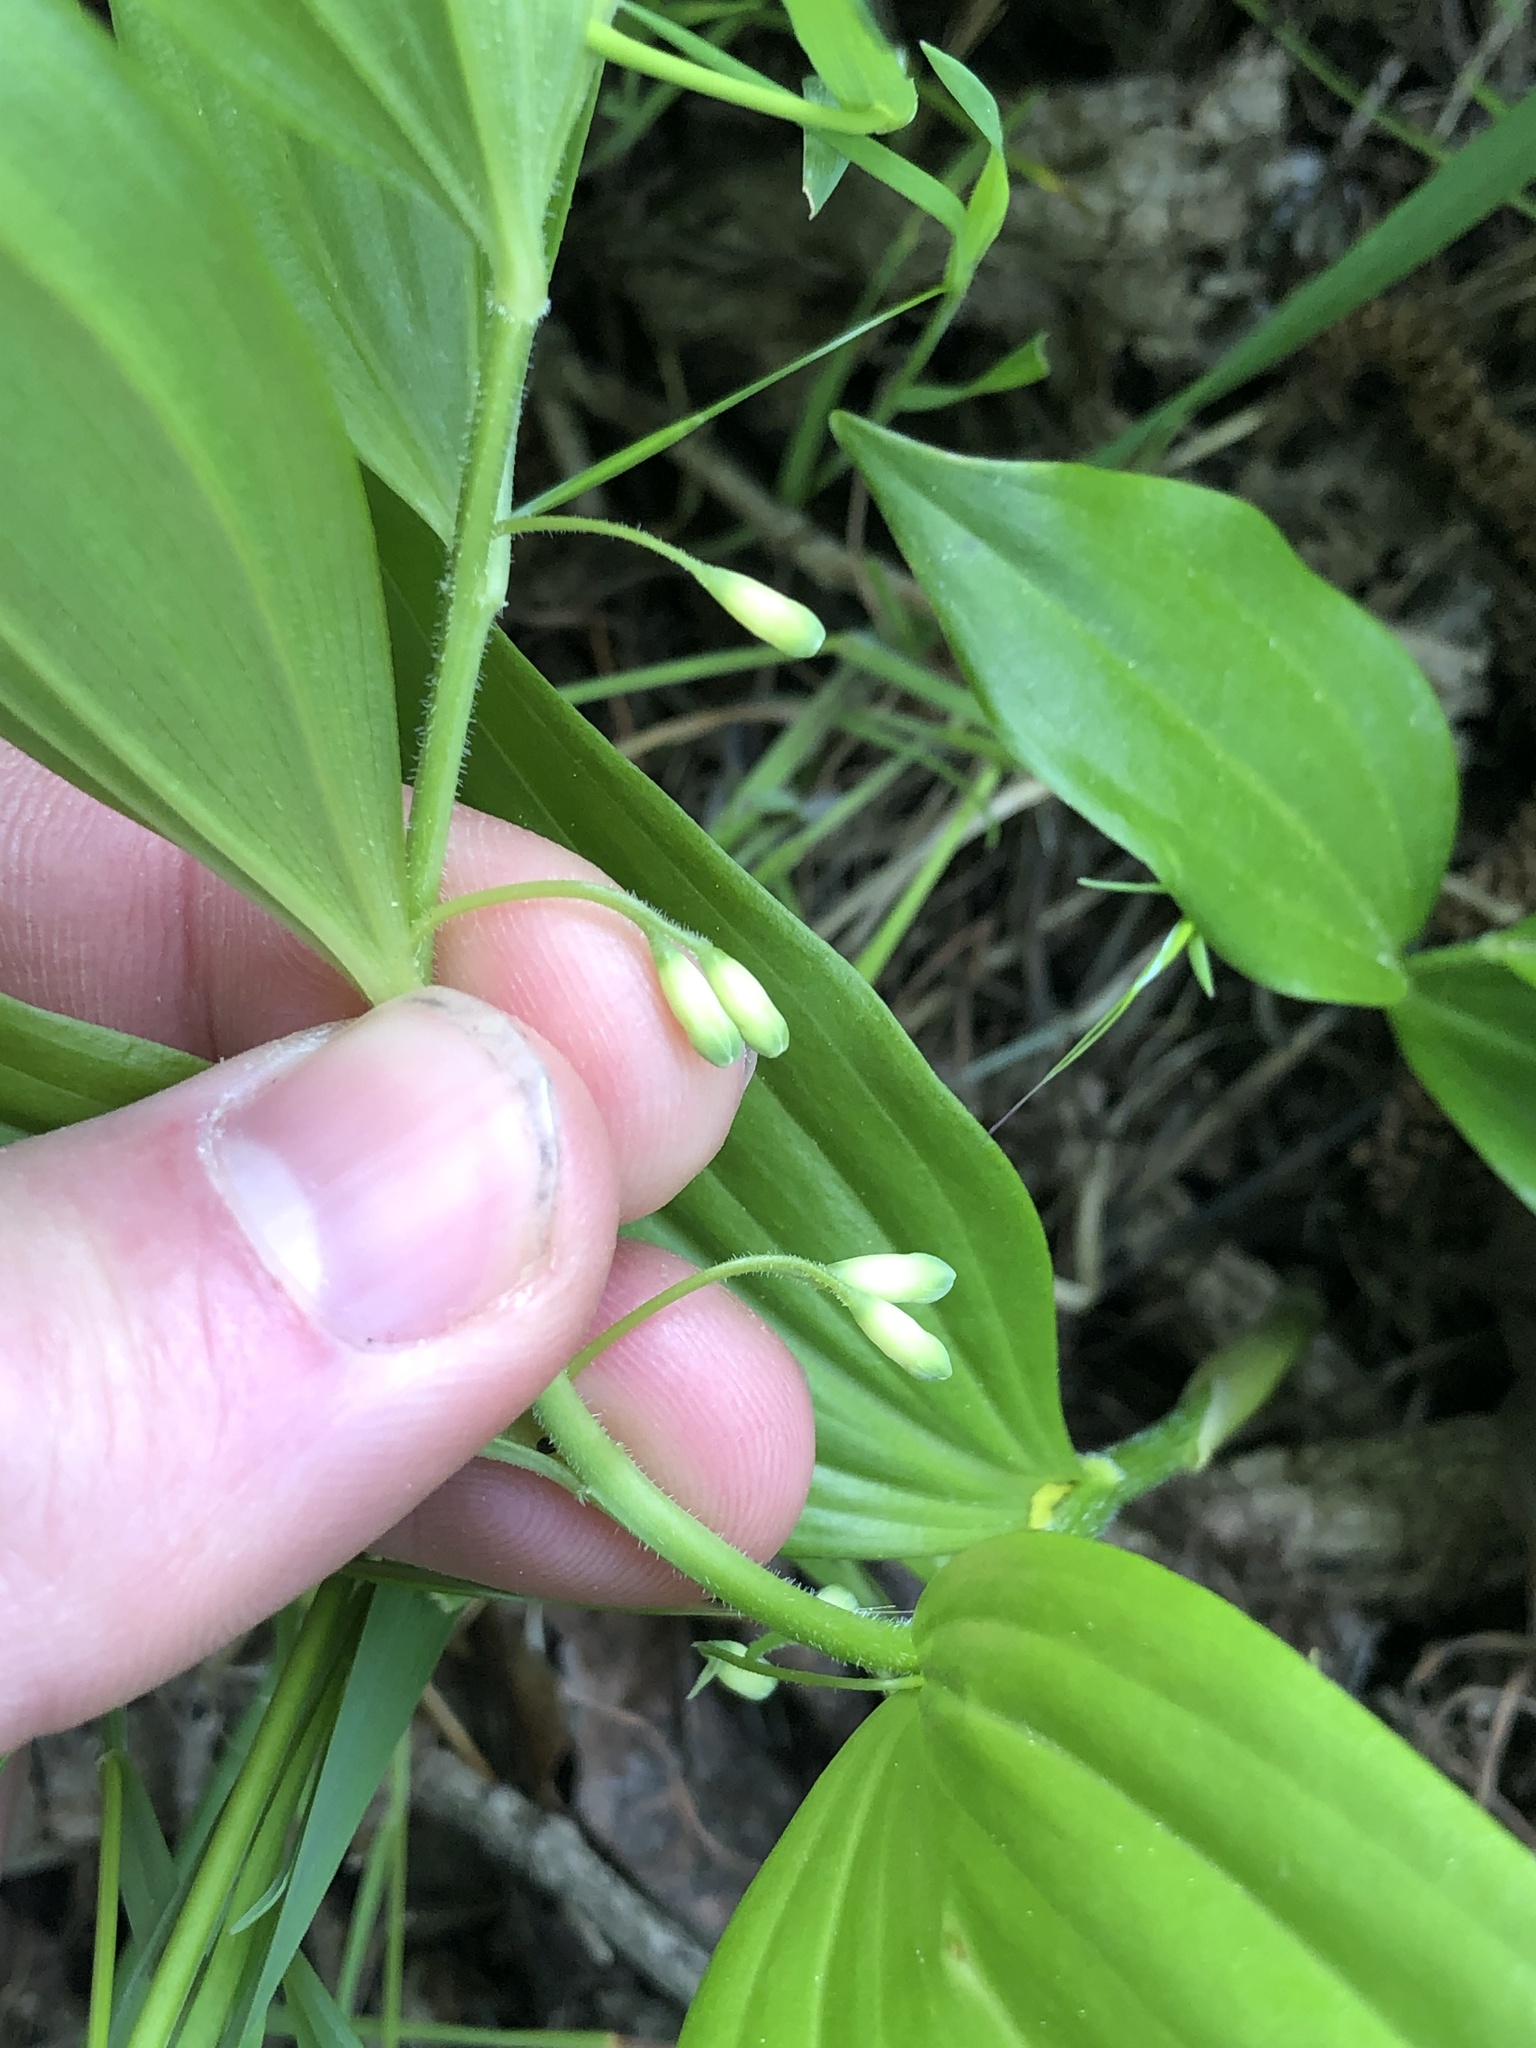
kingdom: Plantae
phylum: Tracheophyta
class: Liliopsida
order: Asparagales
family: Asparagaceae
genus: Polygonatum
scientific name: Polygonatum latifolium
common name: Broadleaf solomon's seal
